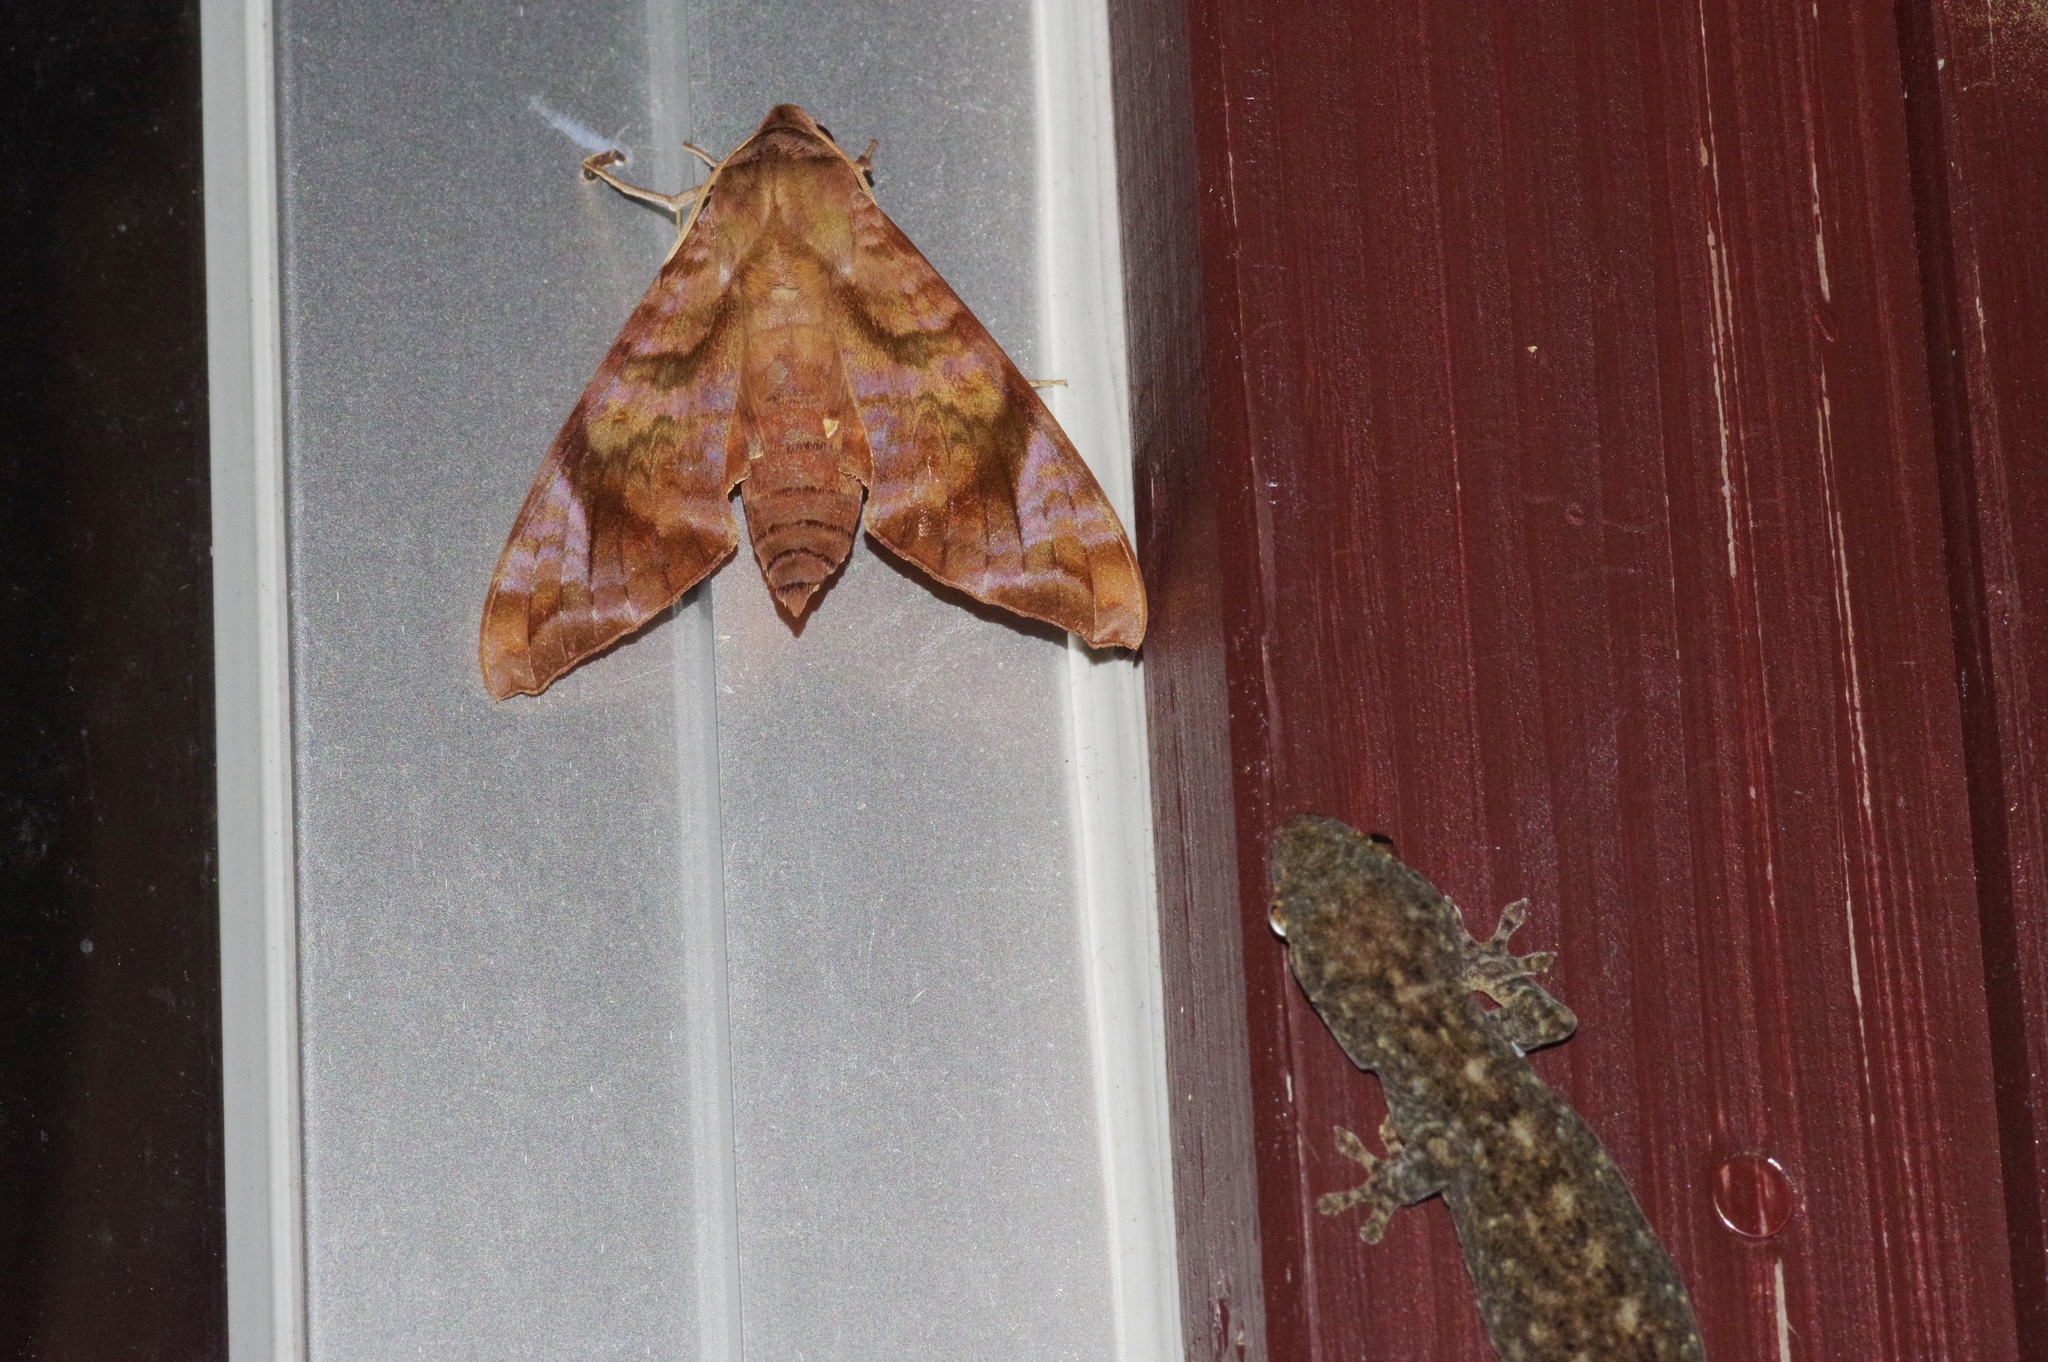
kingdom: Animalia
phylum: Arthropoda
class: Insecta
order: Lepidoptera
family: Sphingidae
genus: Acosmeryx
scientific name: Acosmeryx castanea
